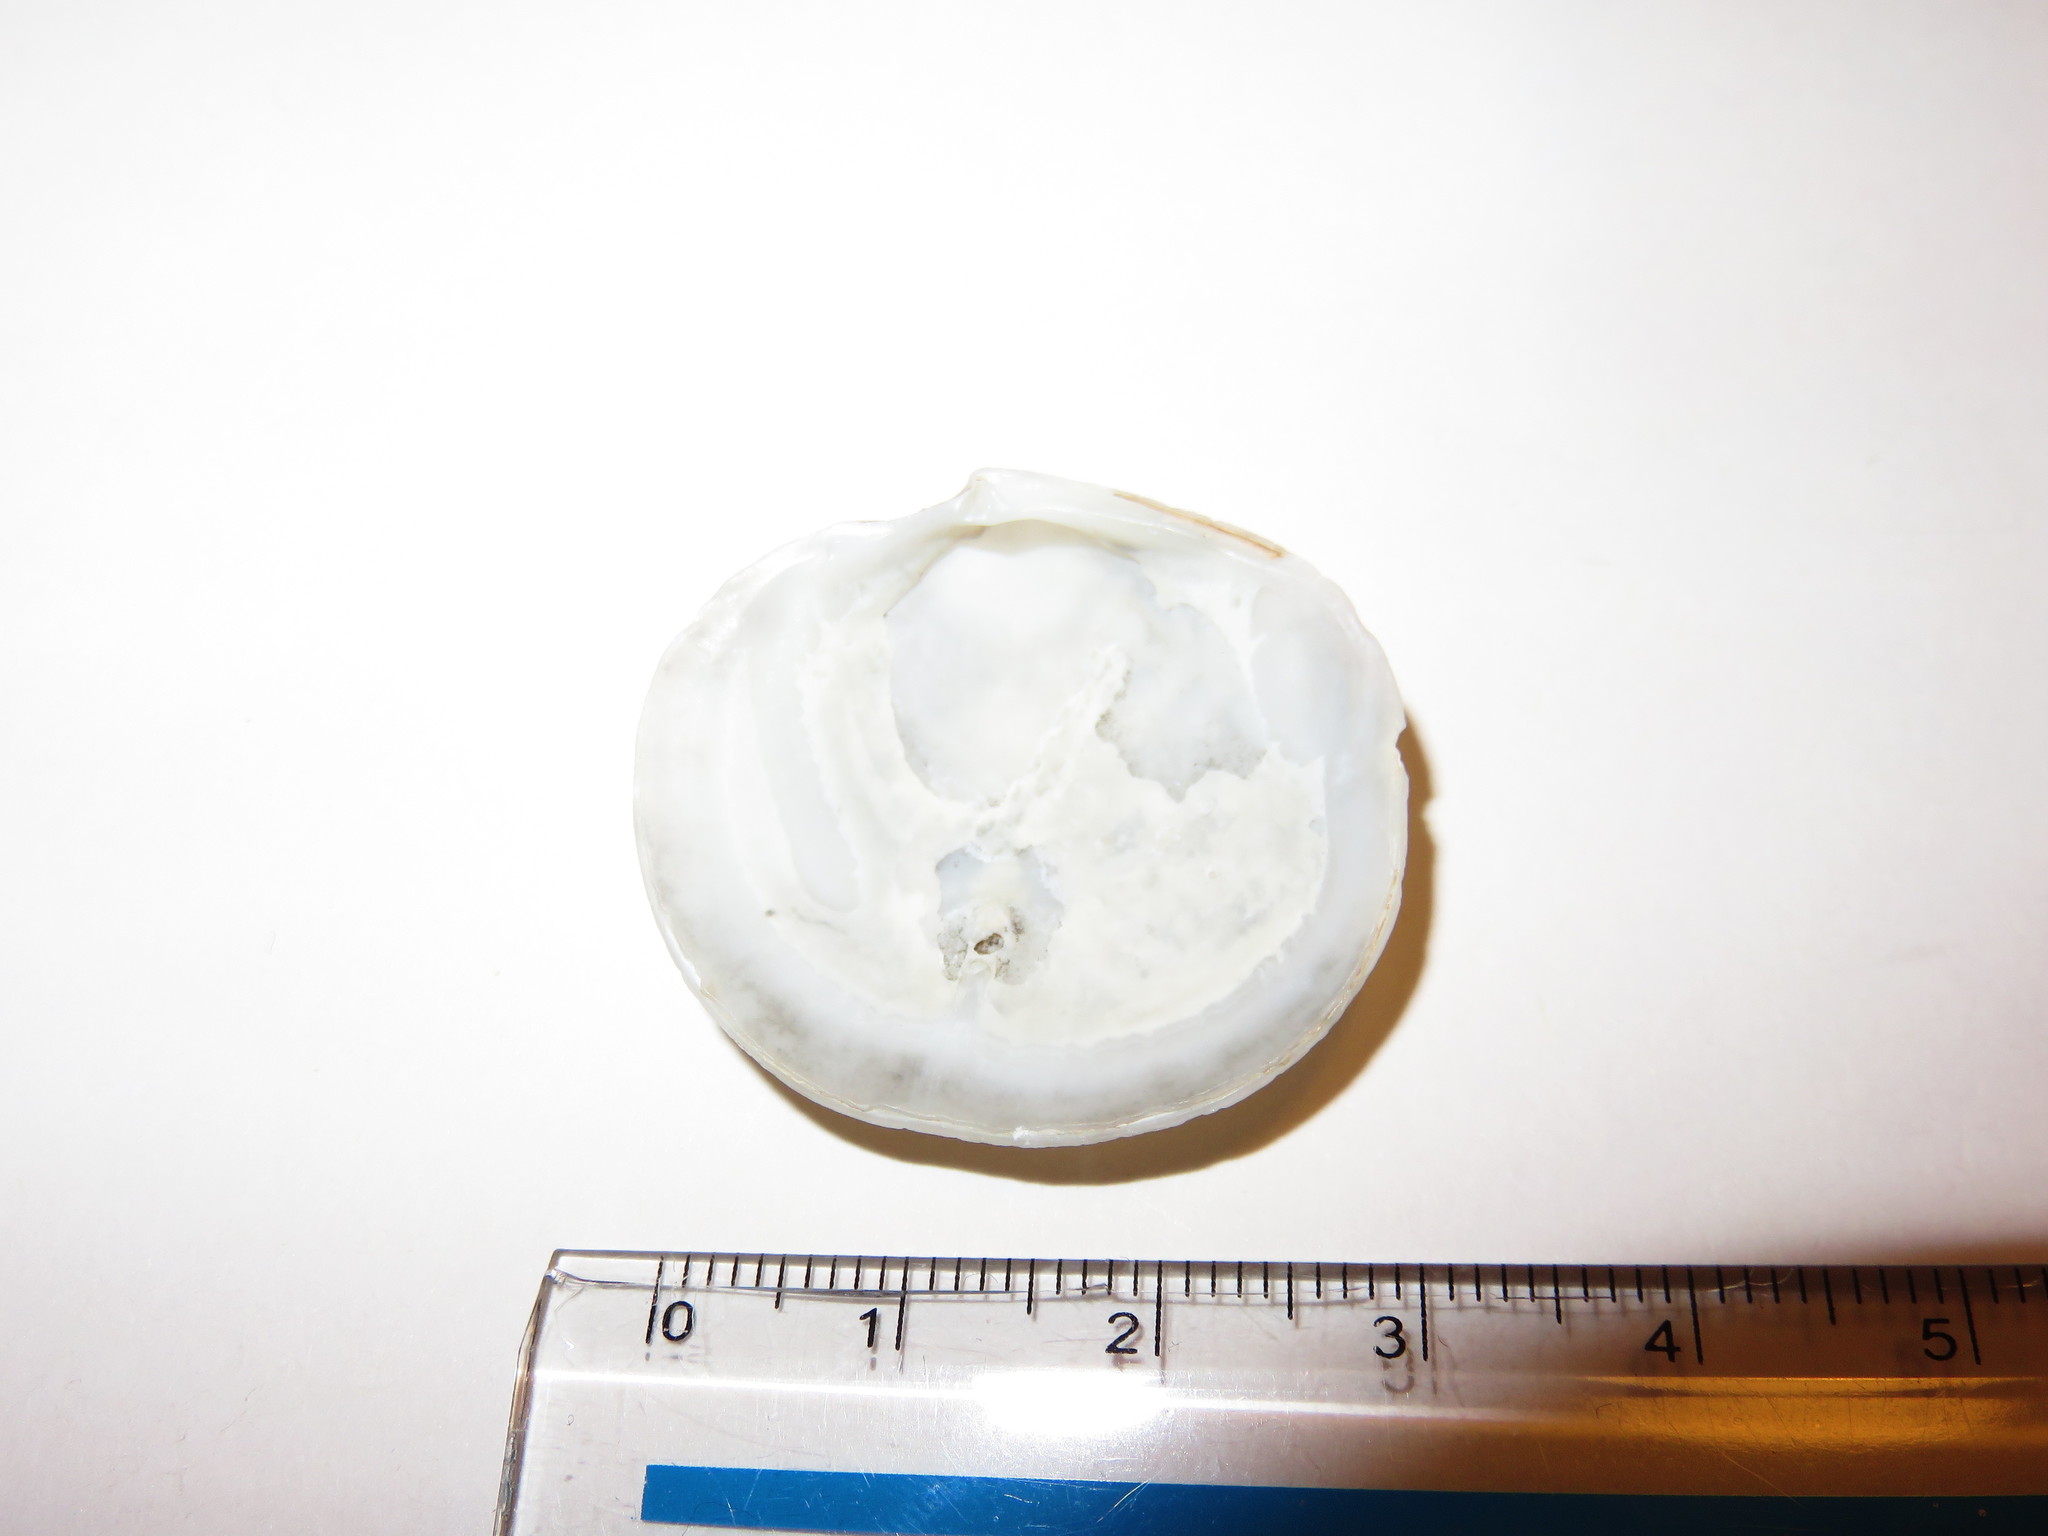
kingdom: Animalia
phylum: Mollusca
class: Bivalvia
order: Lucinida
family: Lucinidae
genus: Lucinoma
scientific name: Lucinoma annulata
